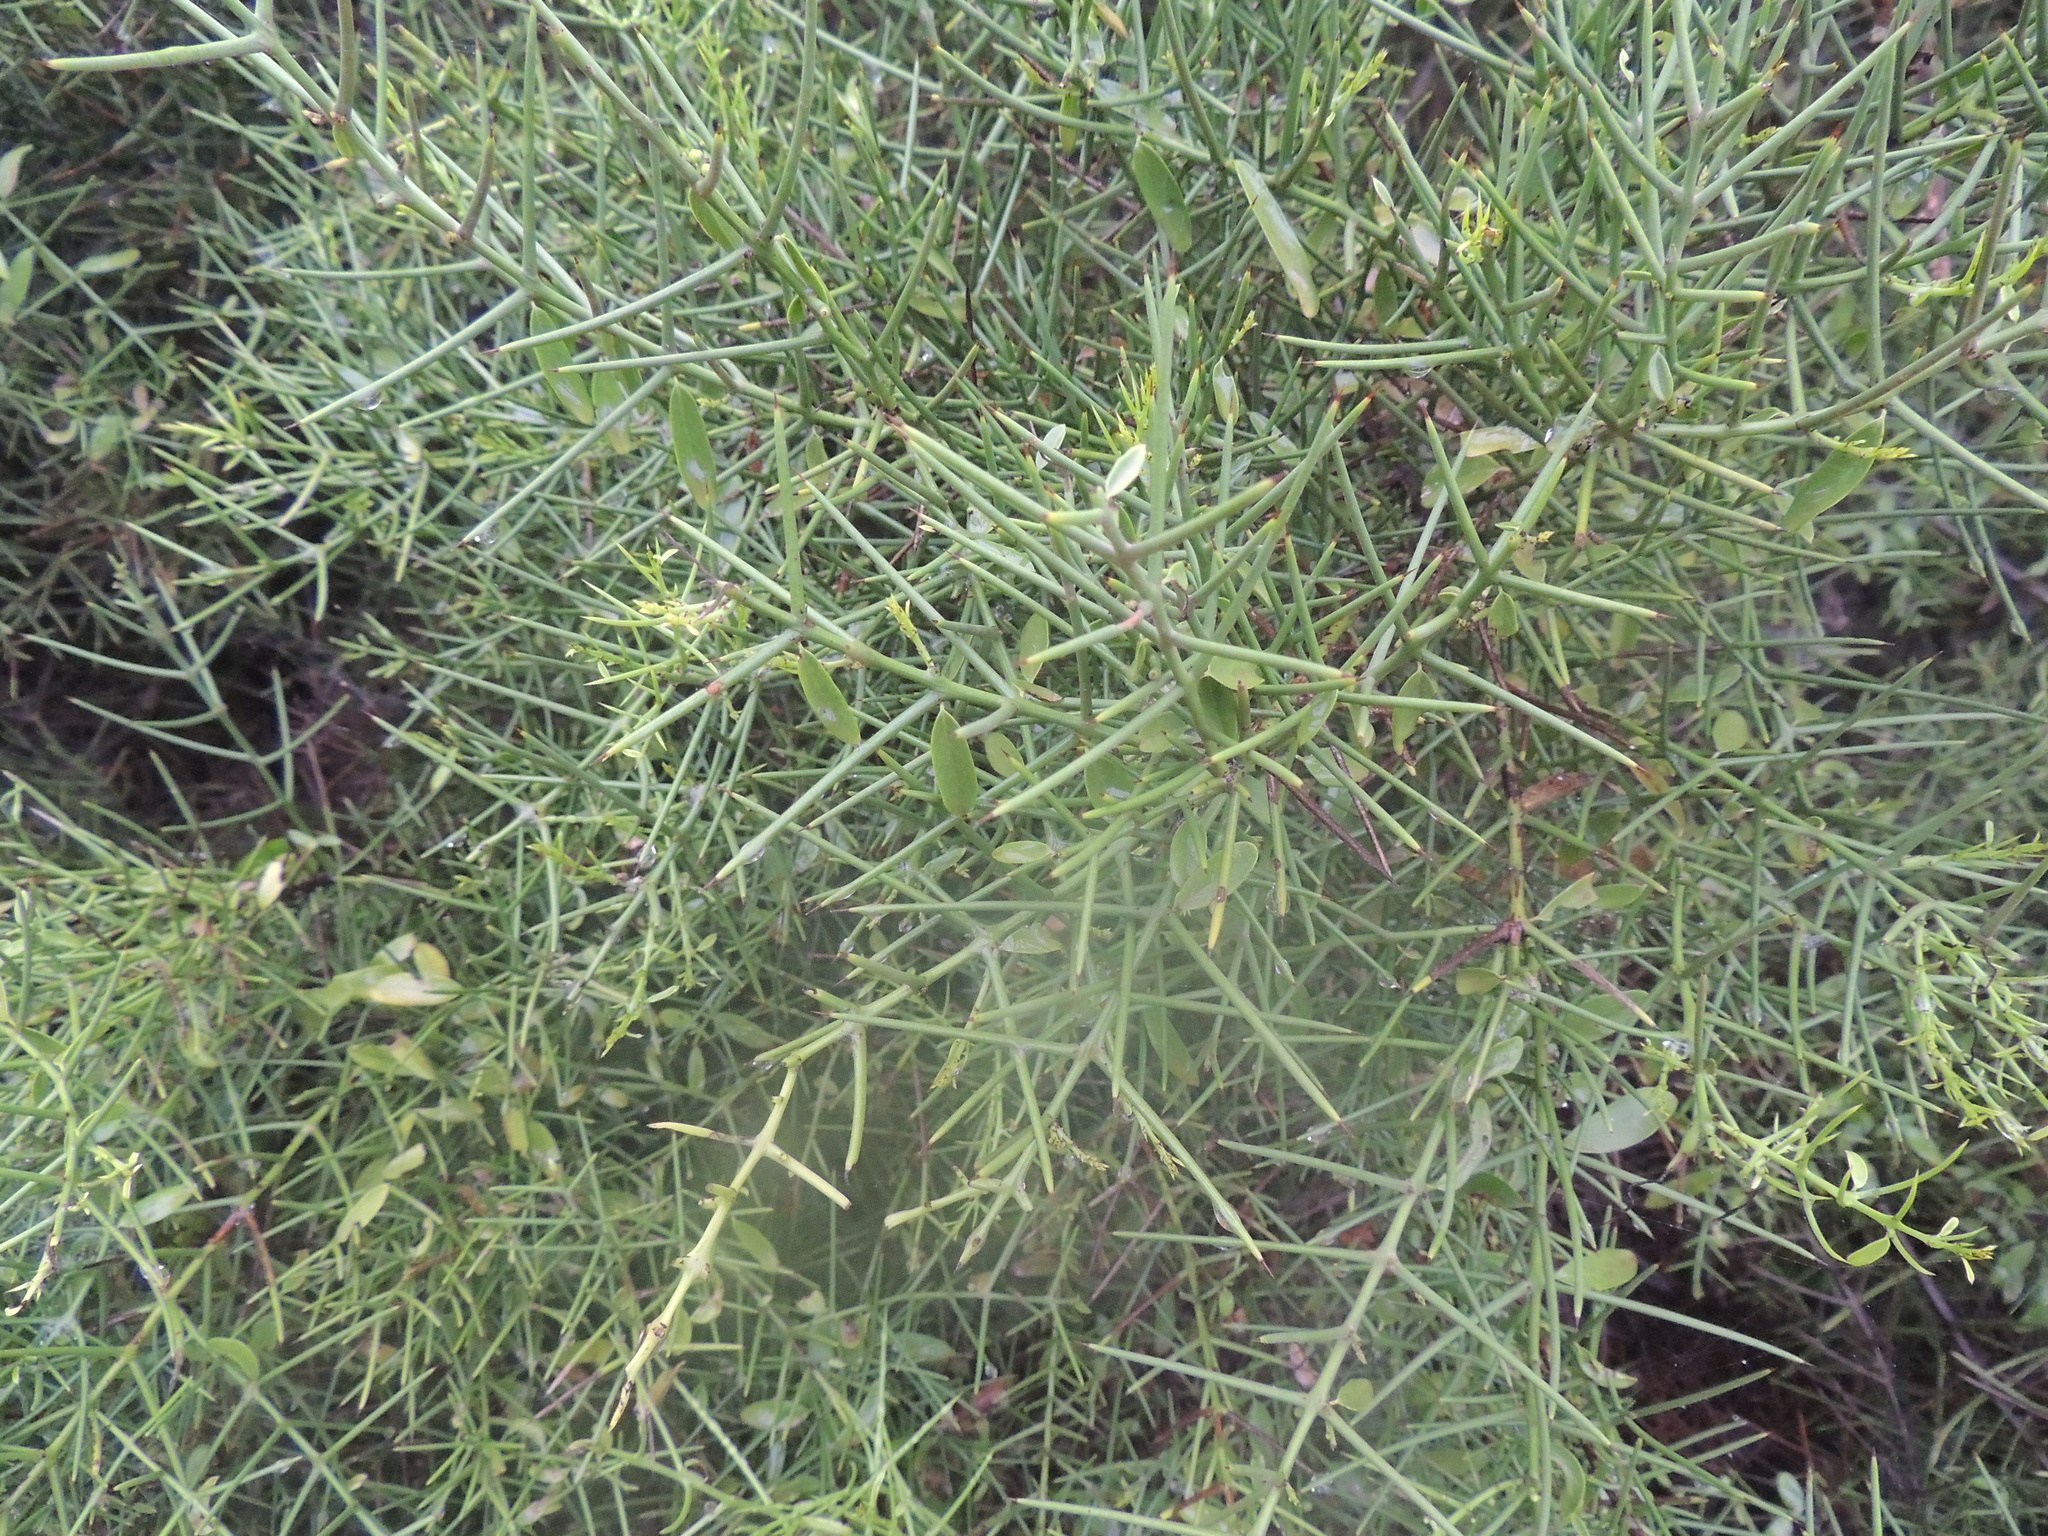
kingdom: Plantae
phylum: Tracheophyta
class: Magnoliopsida
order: Rosales
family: Rhamnaceae
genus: Scutia
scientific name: Scutia spicata
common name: Spiny bush
